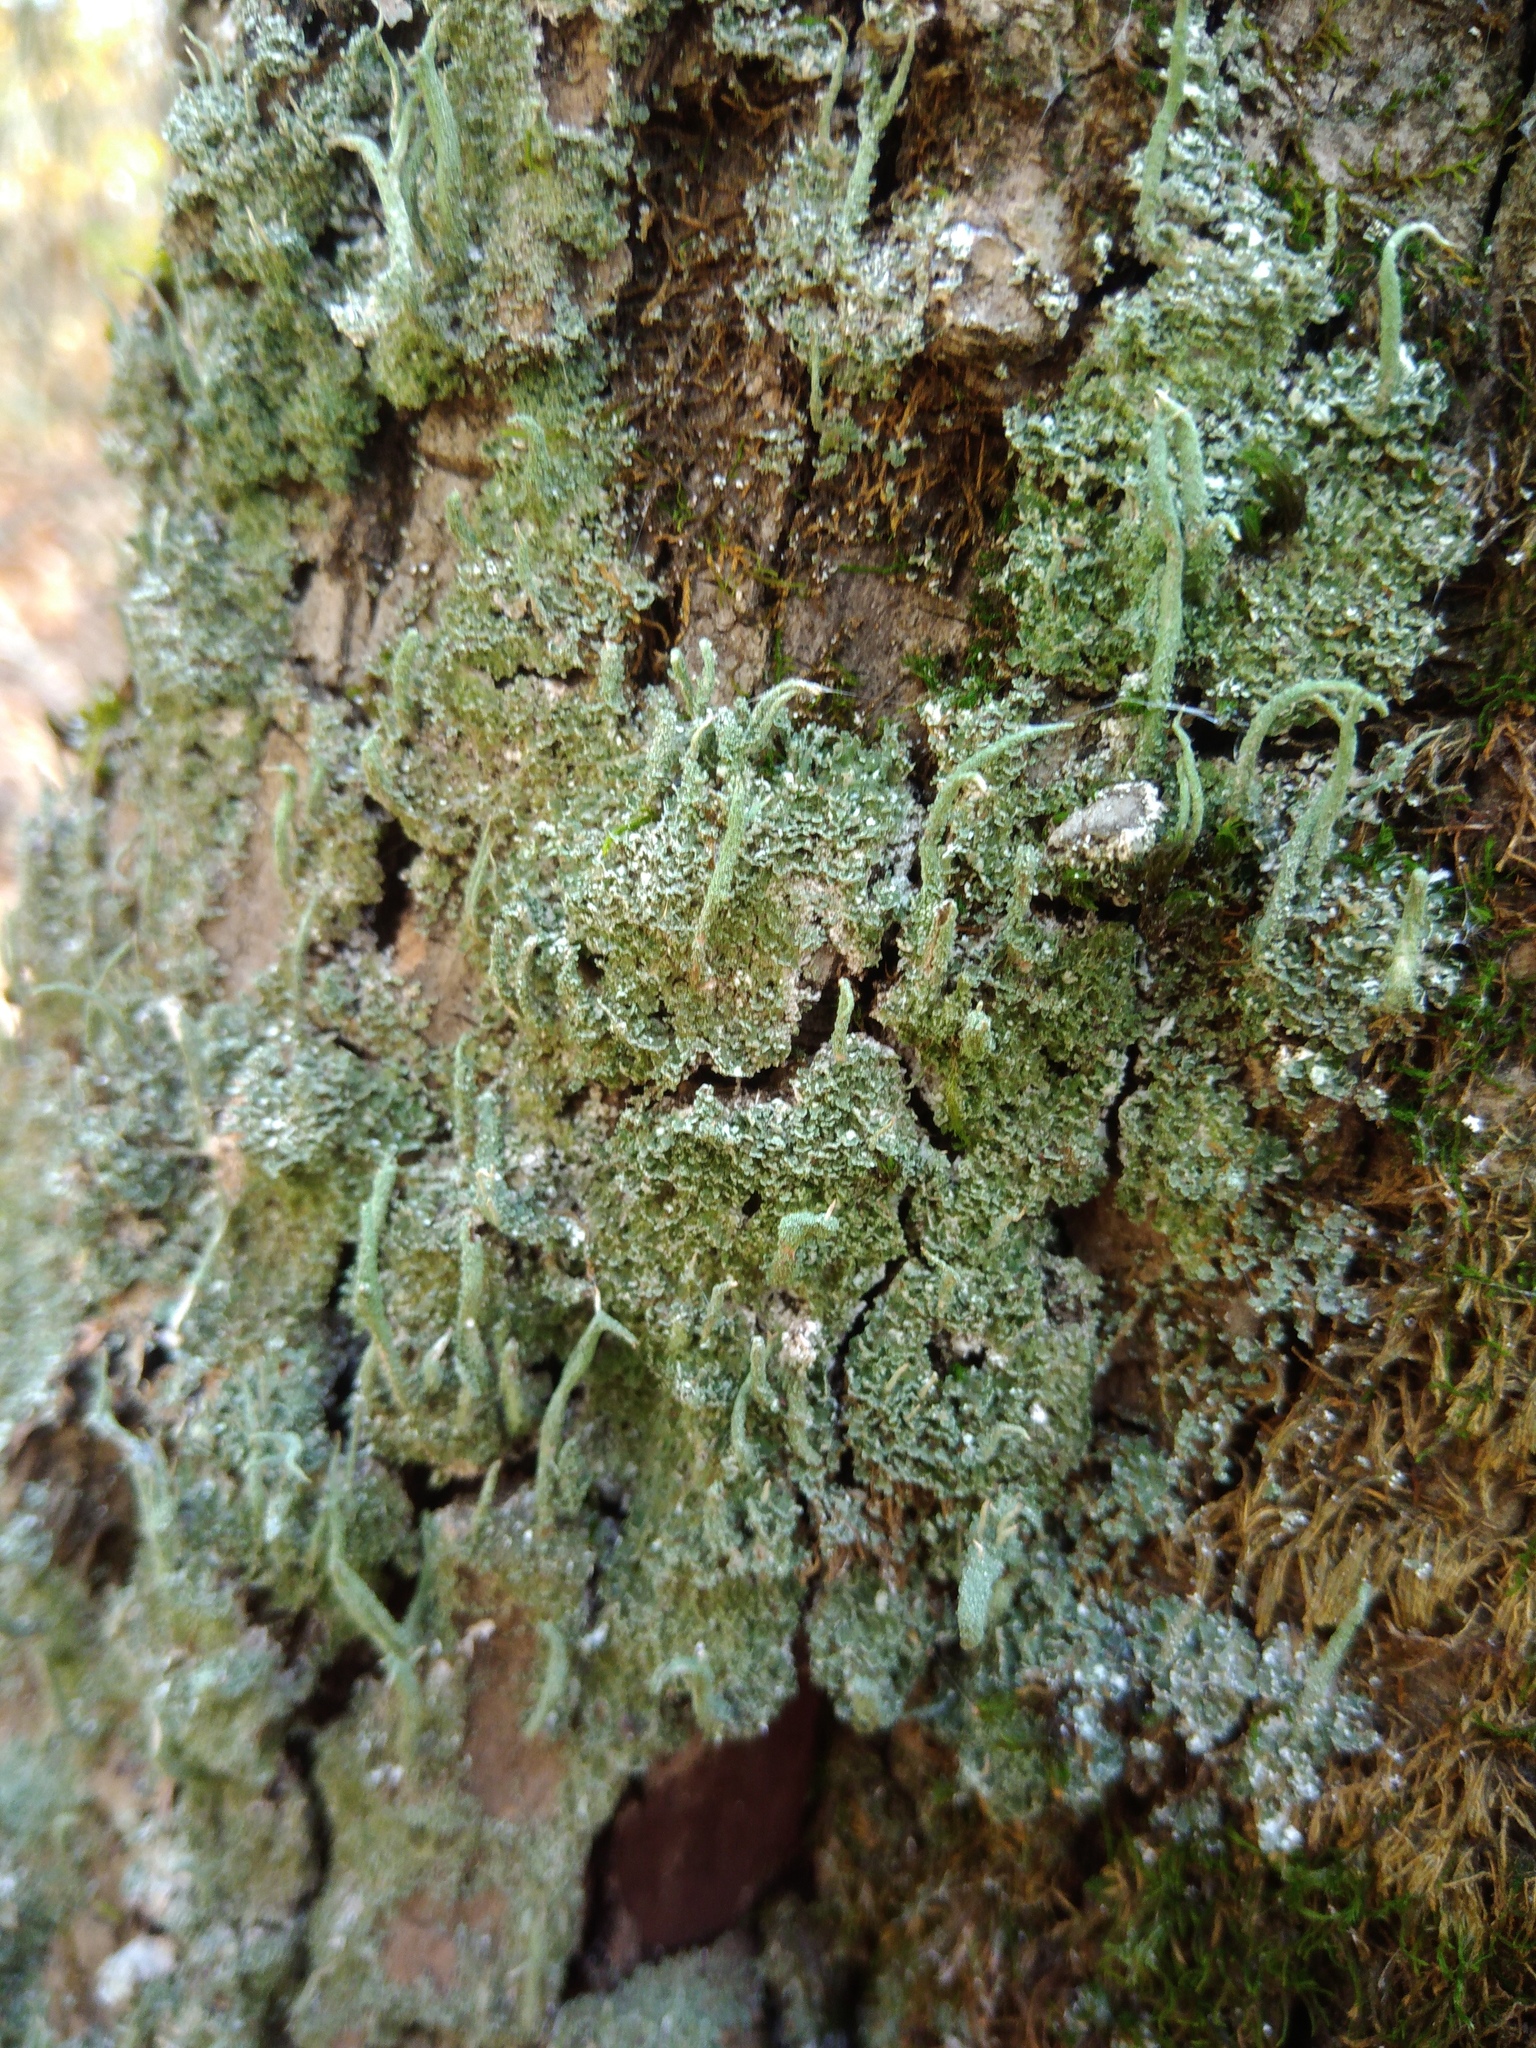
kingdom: Fungi
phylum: Ascomycota
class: Lecanoromycetes
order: Lecanorales
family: Cladoniaceae
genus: Cladonia
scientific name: Cladonia coniocraea
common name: Common powderhorn
